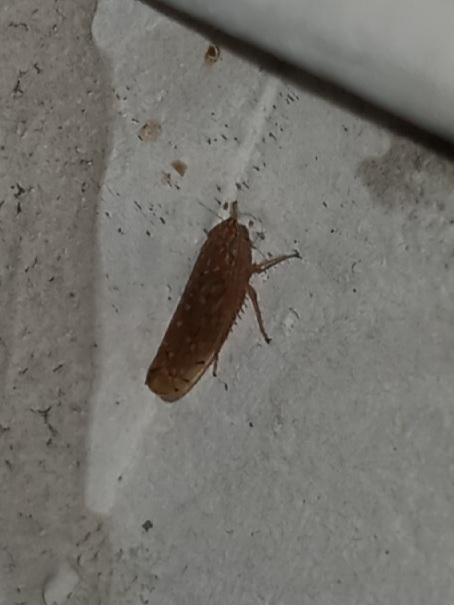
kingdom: Animalia
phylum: Arthropoda
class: Insecta
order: Hemiptera
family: Cicadellidae
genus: Cantura
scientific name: Cantura jucunda
